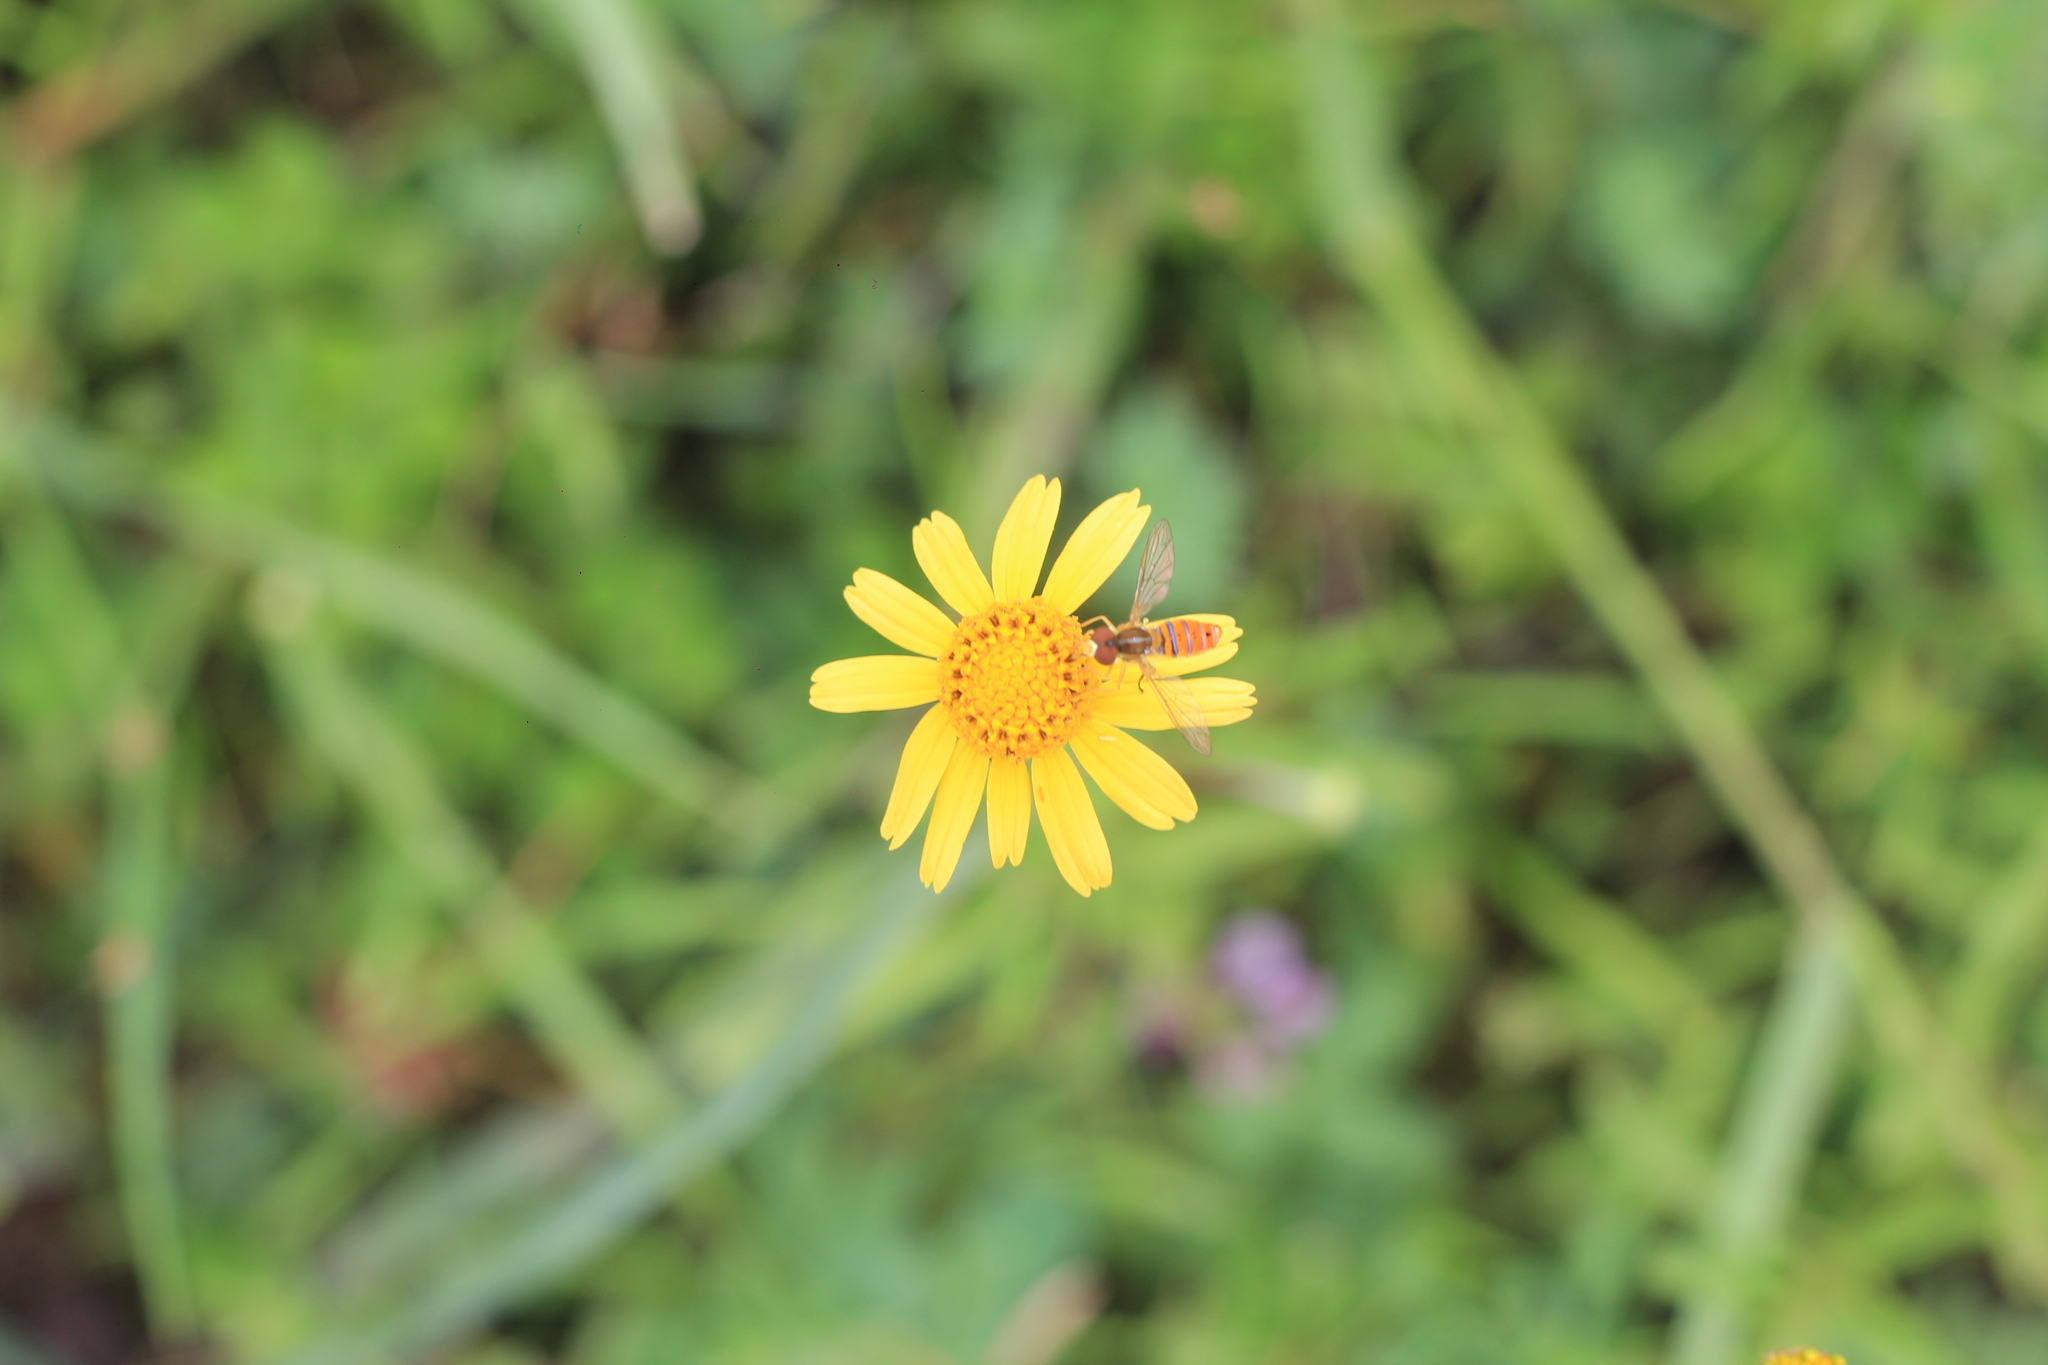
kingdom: Animalia
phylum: Arthropoda
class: Insecta
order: Diptera
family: Syrphidae
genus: Toxomerus
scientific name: Toxomerus
